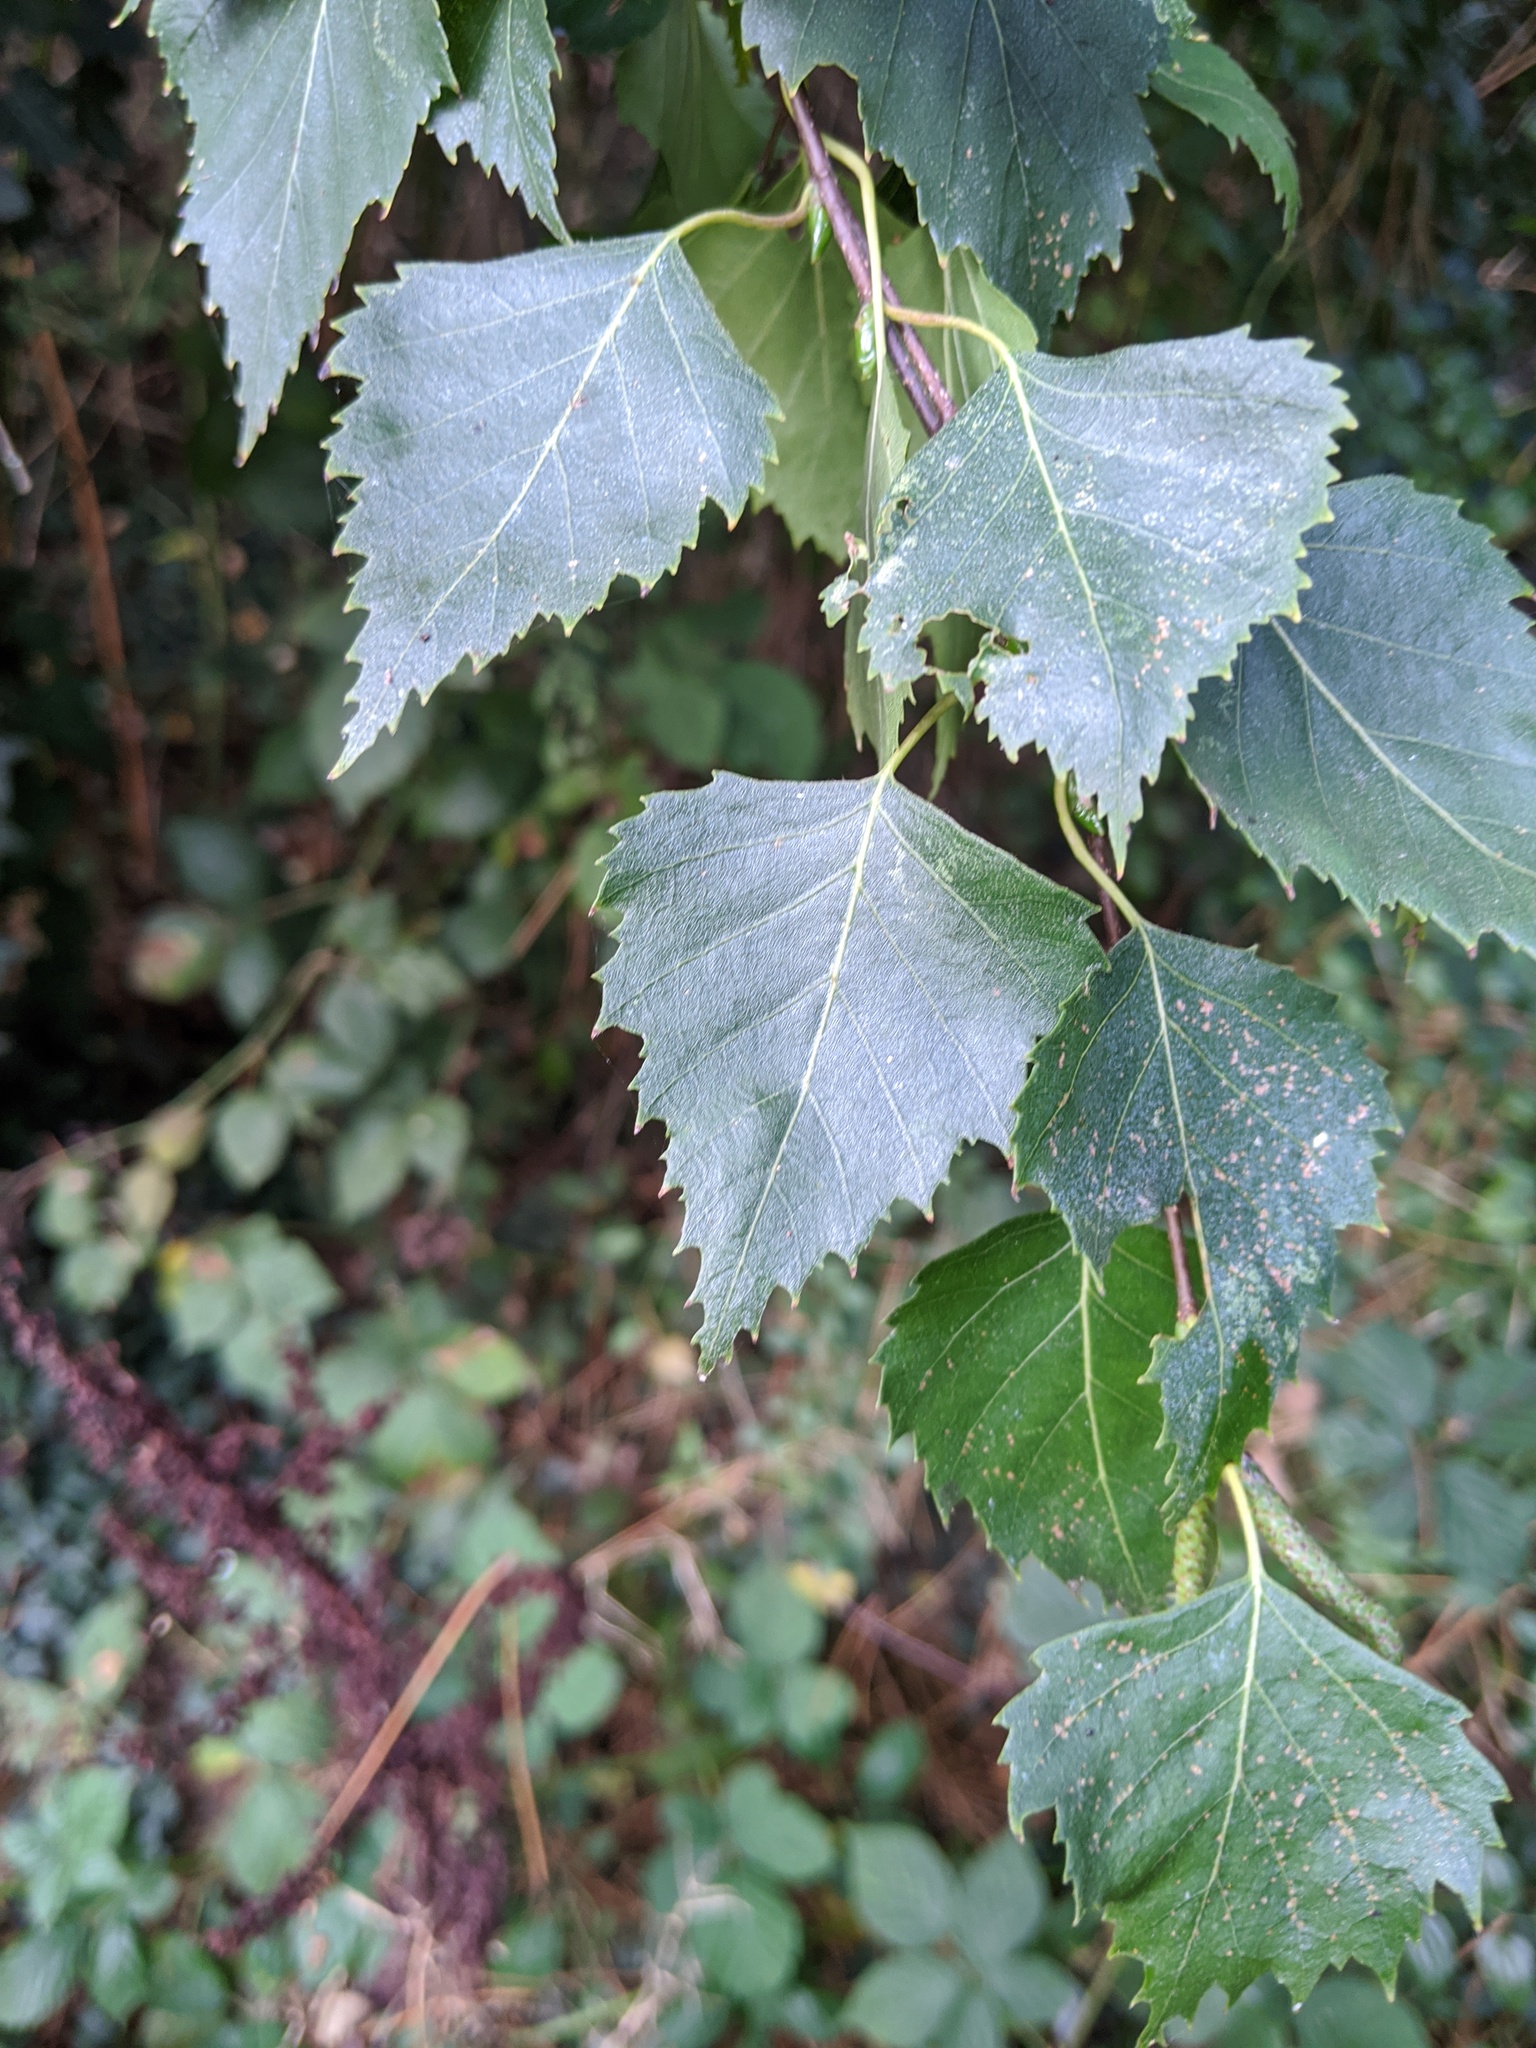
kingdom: Plantae
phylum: Tracheophyta
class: Magnoliopsida
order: Fagales
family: Betulaceae
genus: Betula
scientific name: Betula pendula
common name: Silver birch
